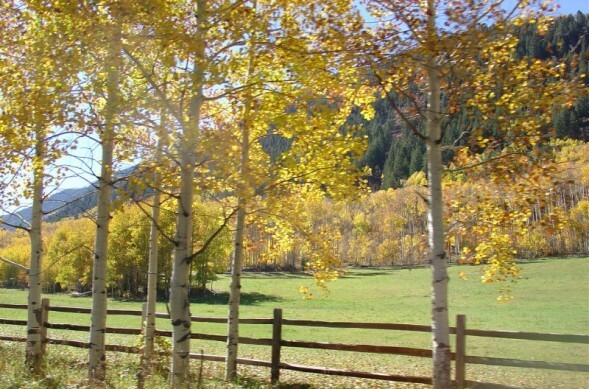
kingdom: Plantae
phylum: Tracheophyta
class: Magnoliopsida
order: Malpighiales
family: Salicaceae
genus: Populus
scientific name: Populus tremuloides
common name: Quaking aspen
